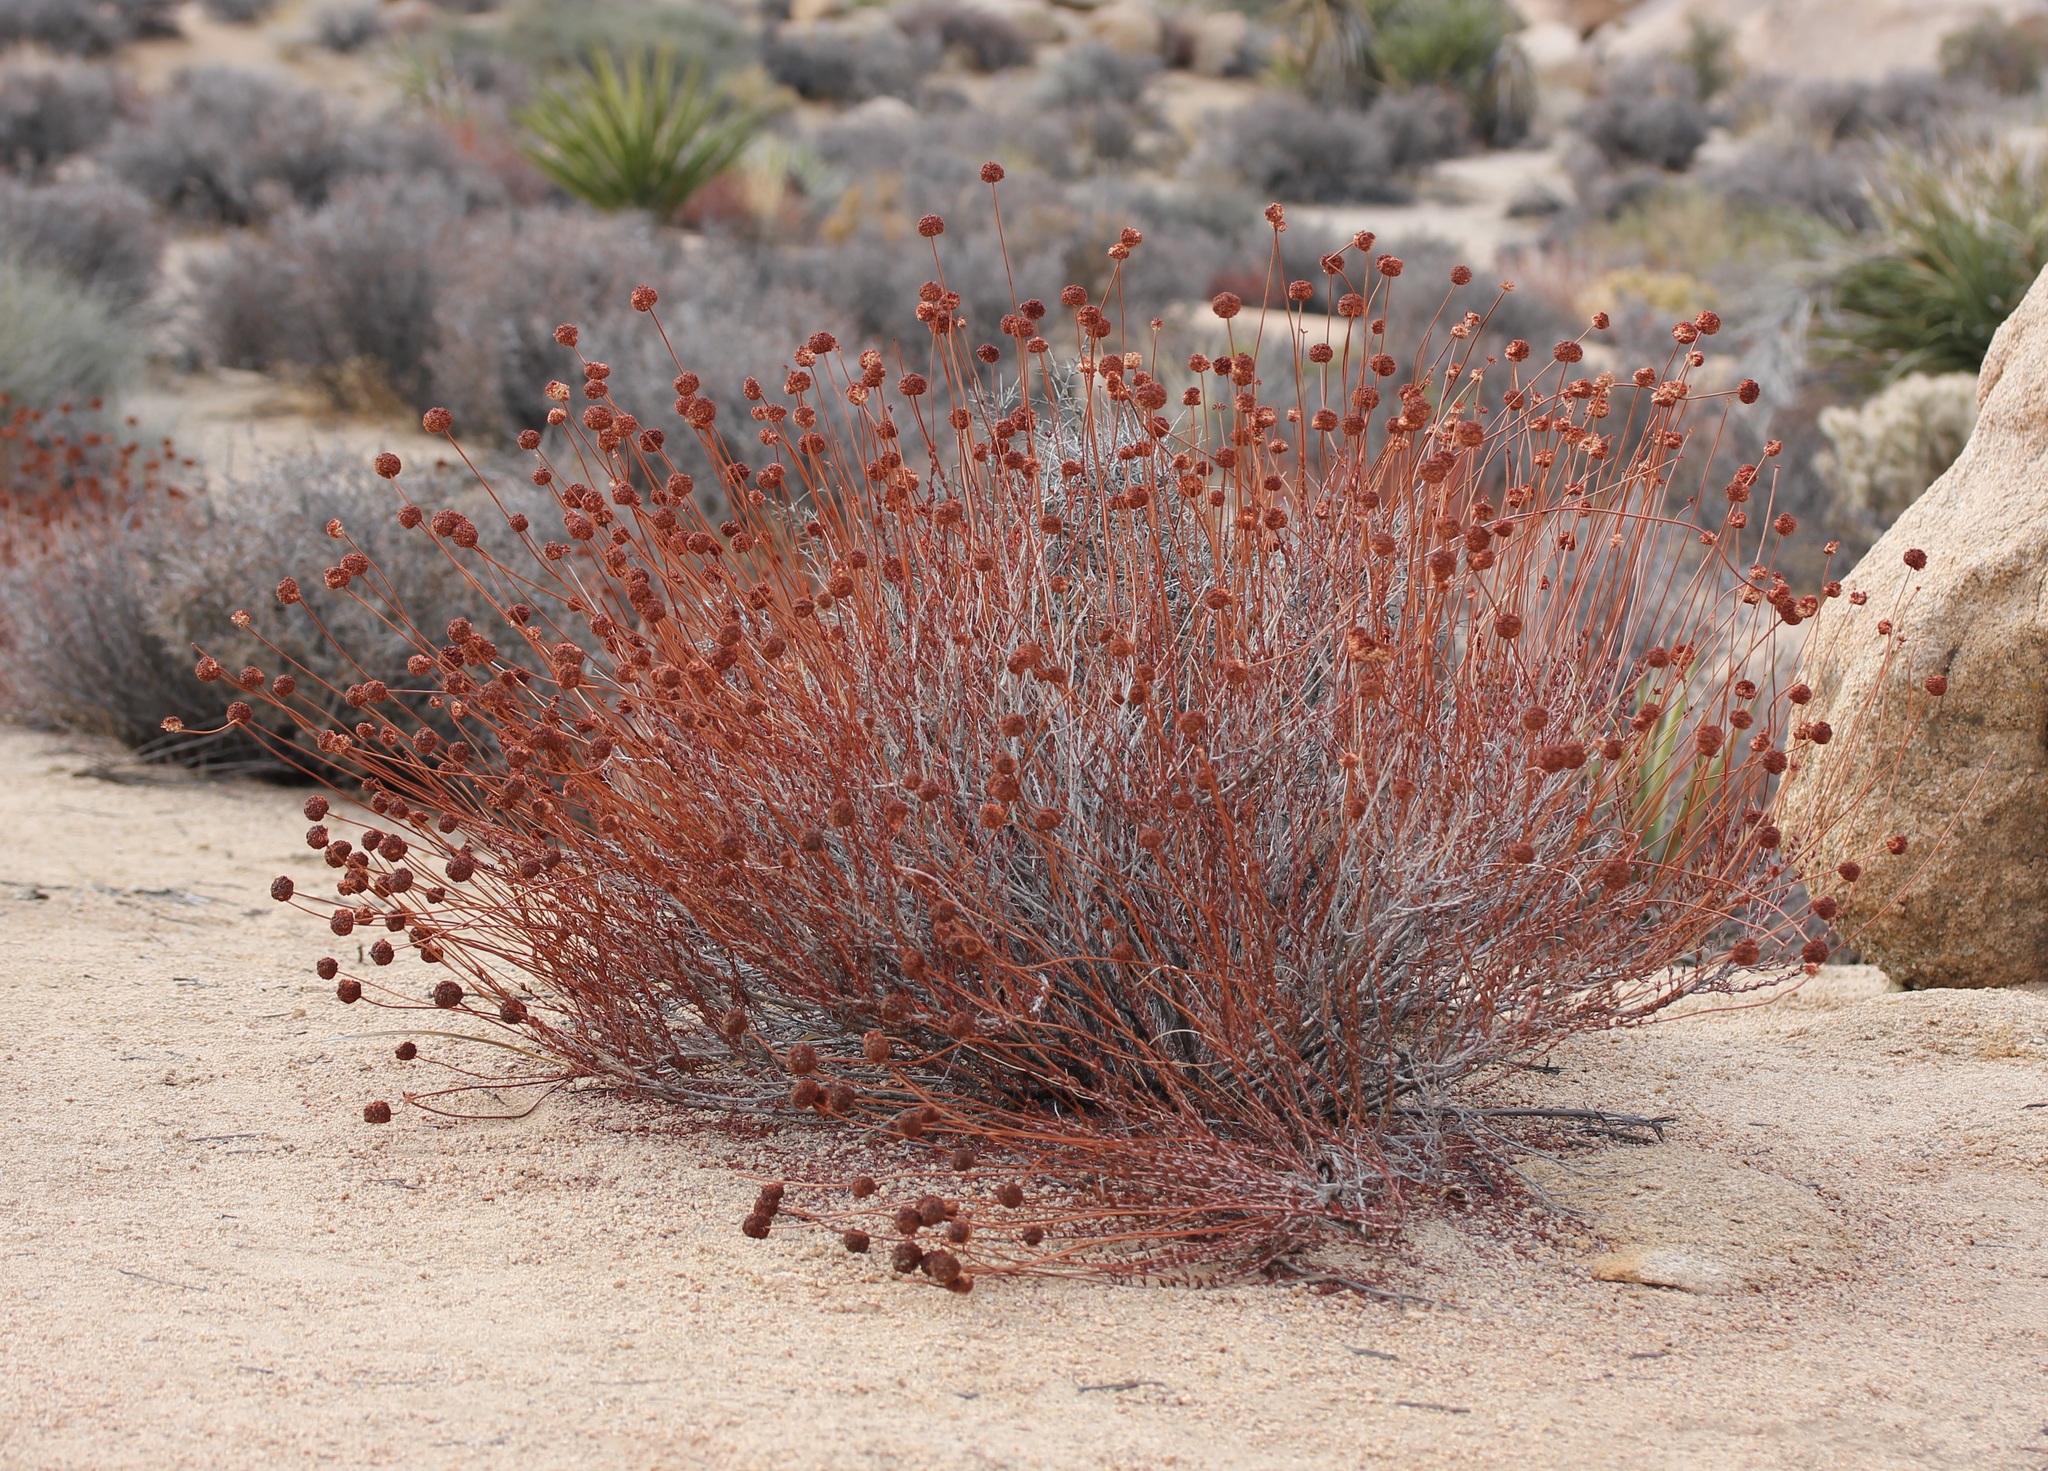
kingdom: Plantae
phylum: Tracheophyta
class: Magnoliopsida
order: Caryophyllales
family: Polygonaceae
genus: Eriogonum
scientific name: Eriogonum fasciculatum
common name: California wild buckwheat
